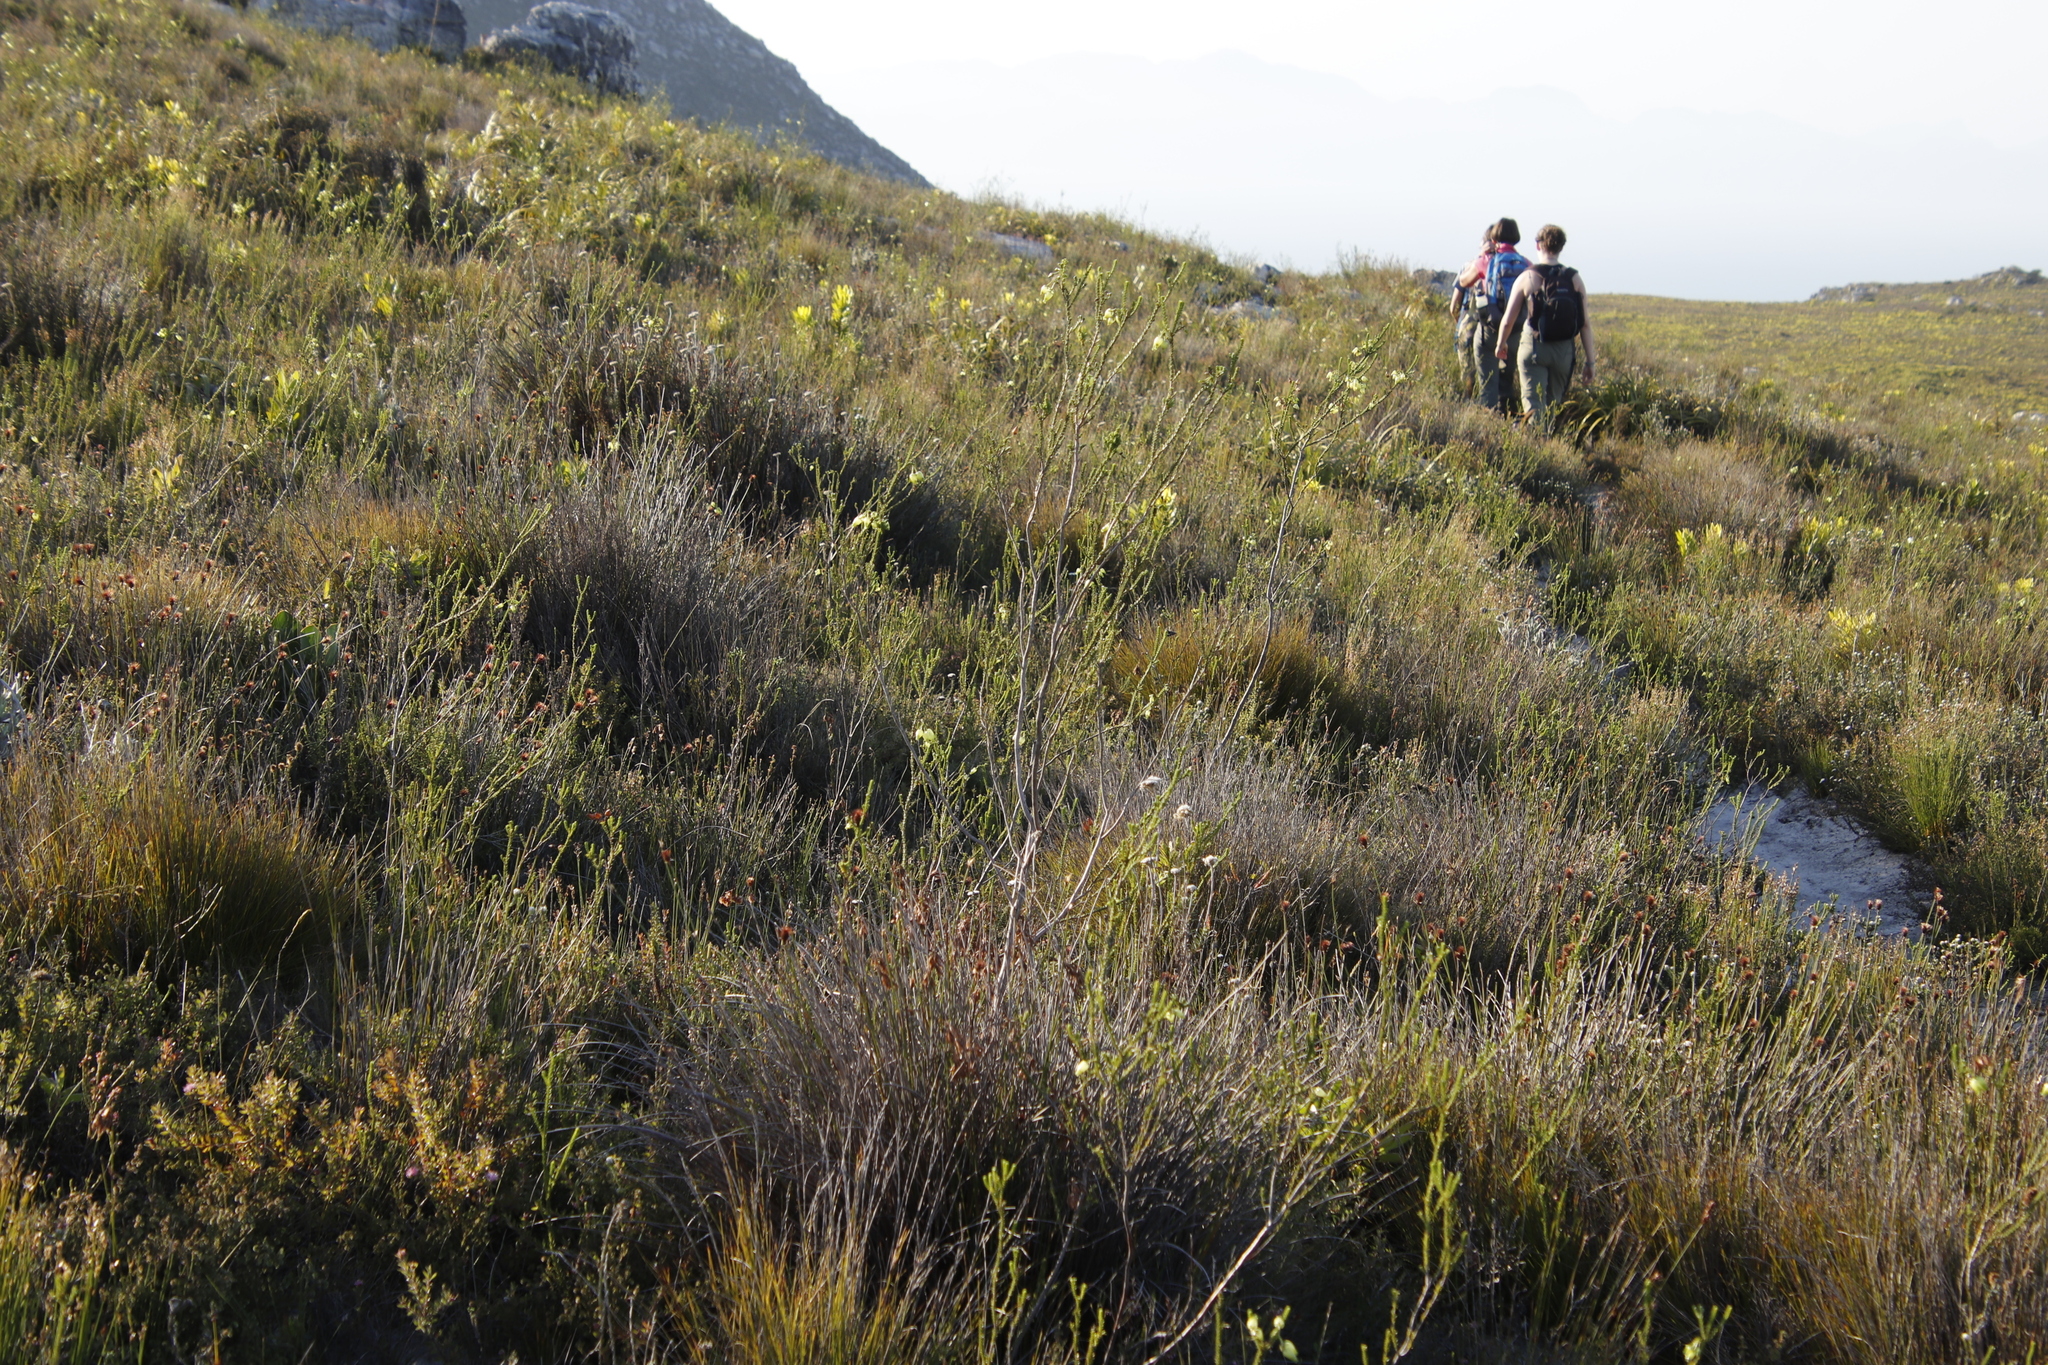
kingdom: Plantae
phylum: Tracheophyta
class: Magnoliopsida
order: Ericales
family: Ericaceae
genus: Erica
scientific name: Erica urna-viridis
